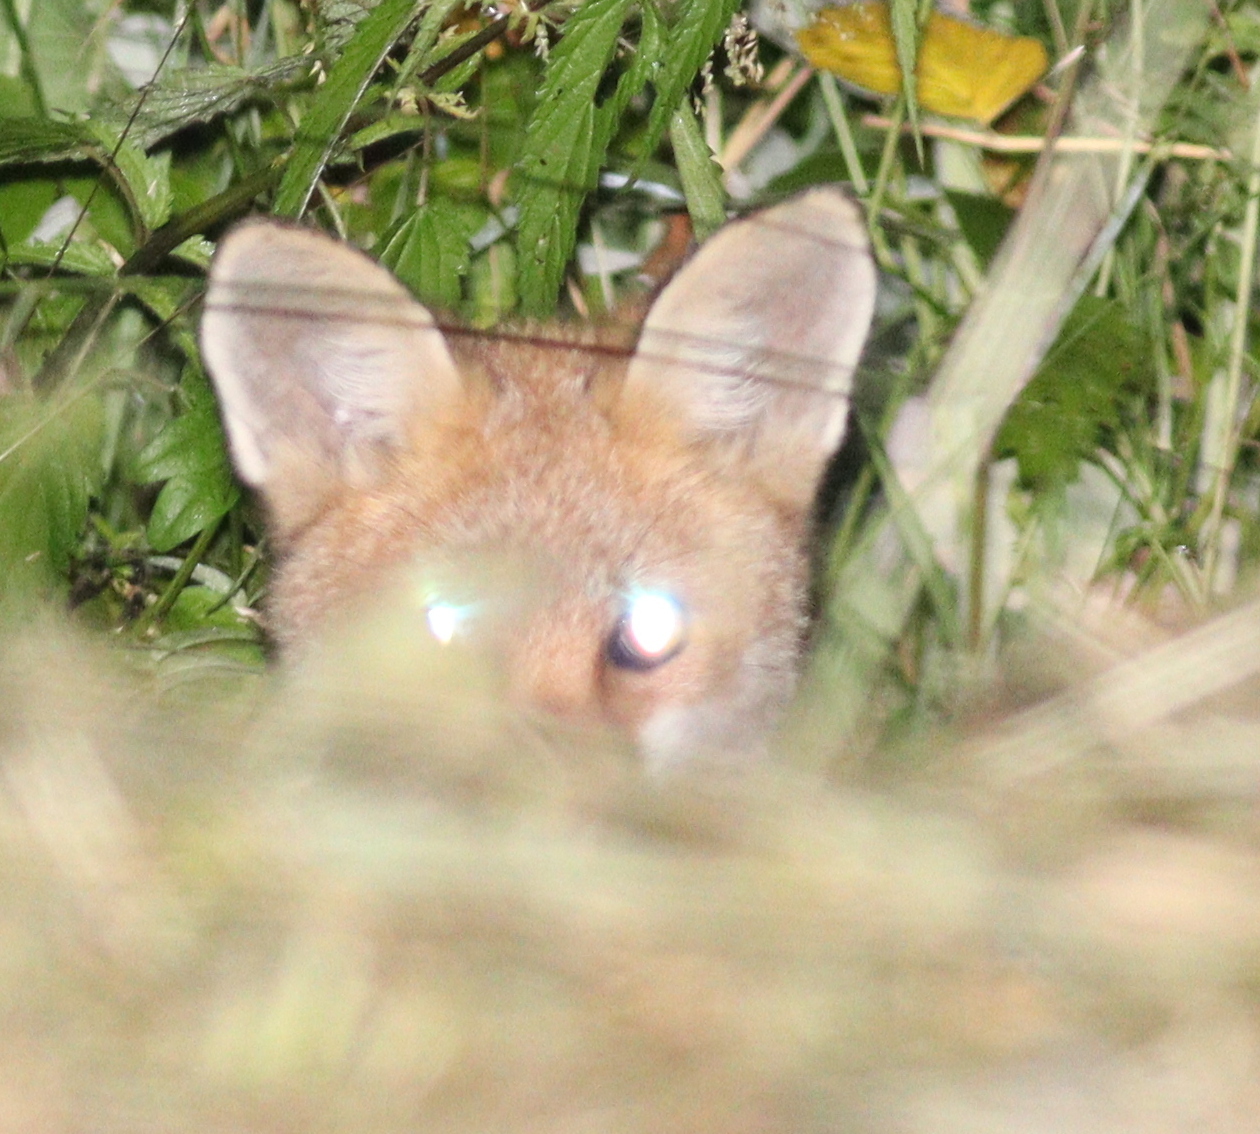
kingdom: Animalia
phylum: Chordata
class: Mammalia
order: Carnivora
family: Canidae
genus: Vulpes
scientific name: Vulpes vulpes
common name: Red fox
